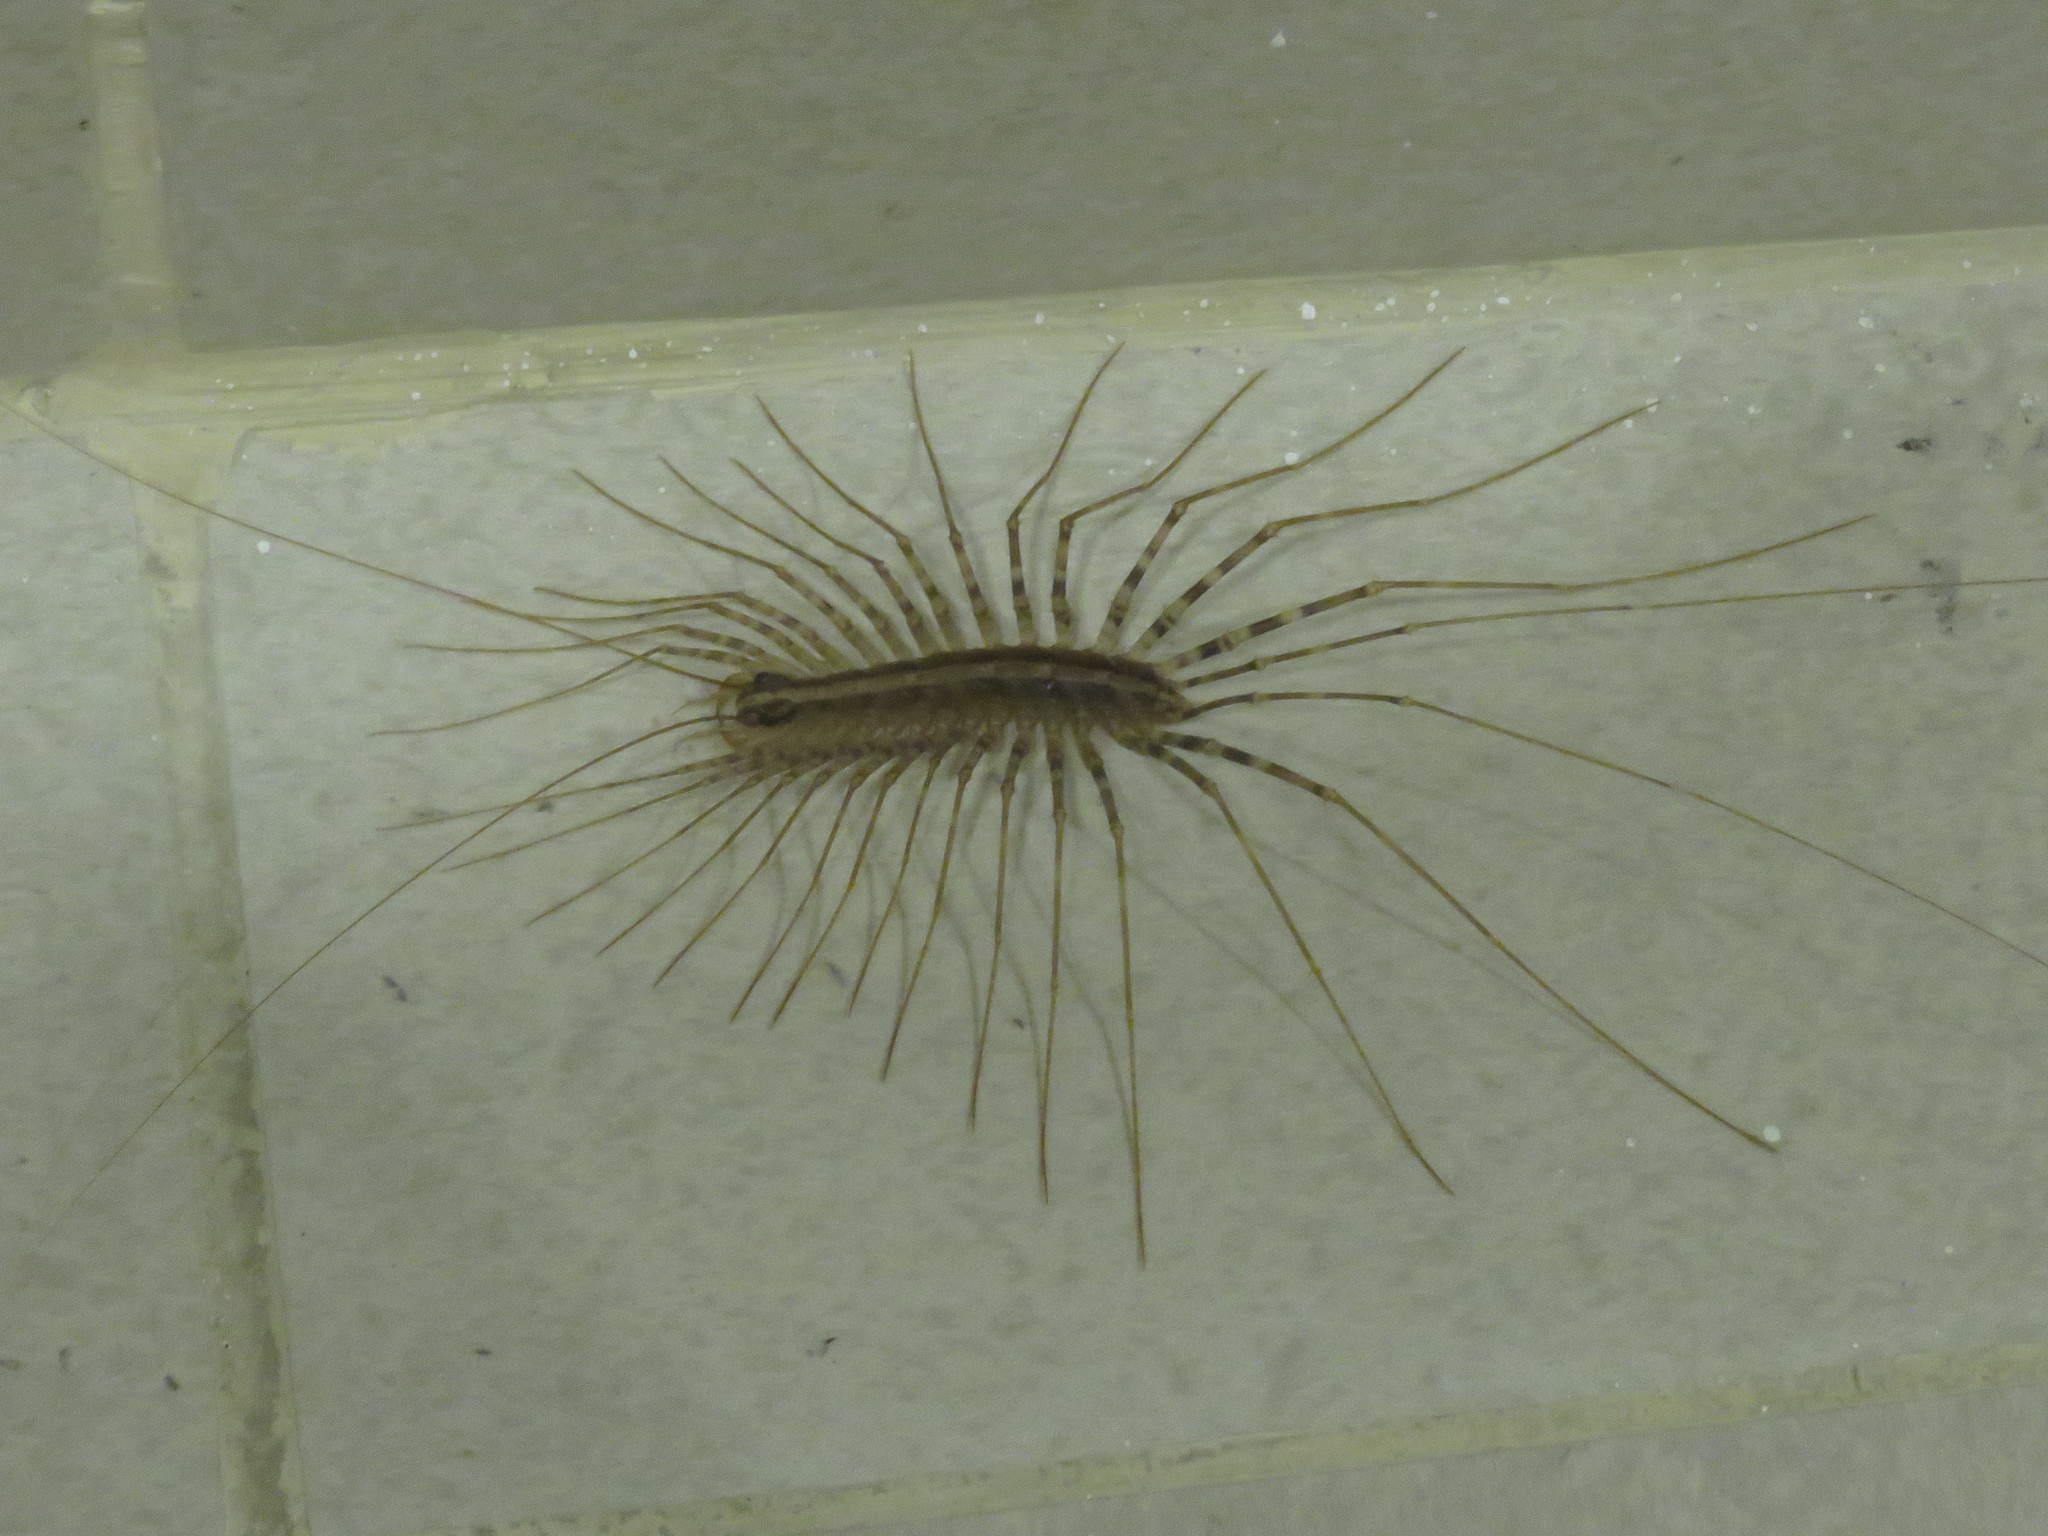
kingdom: Animalia
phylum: Arthropoda
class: Chilopoda
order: Scutigeromorpha
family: Pselliodidae
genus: Sphendononema
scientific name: Sphendononema guildingii
